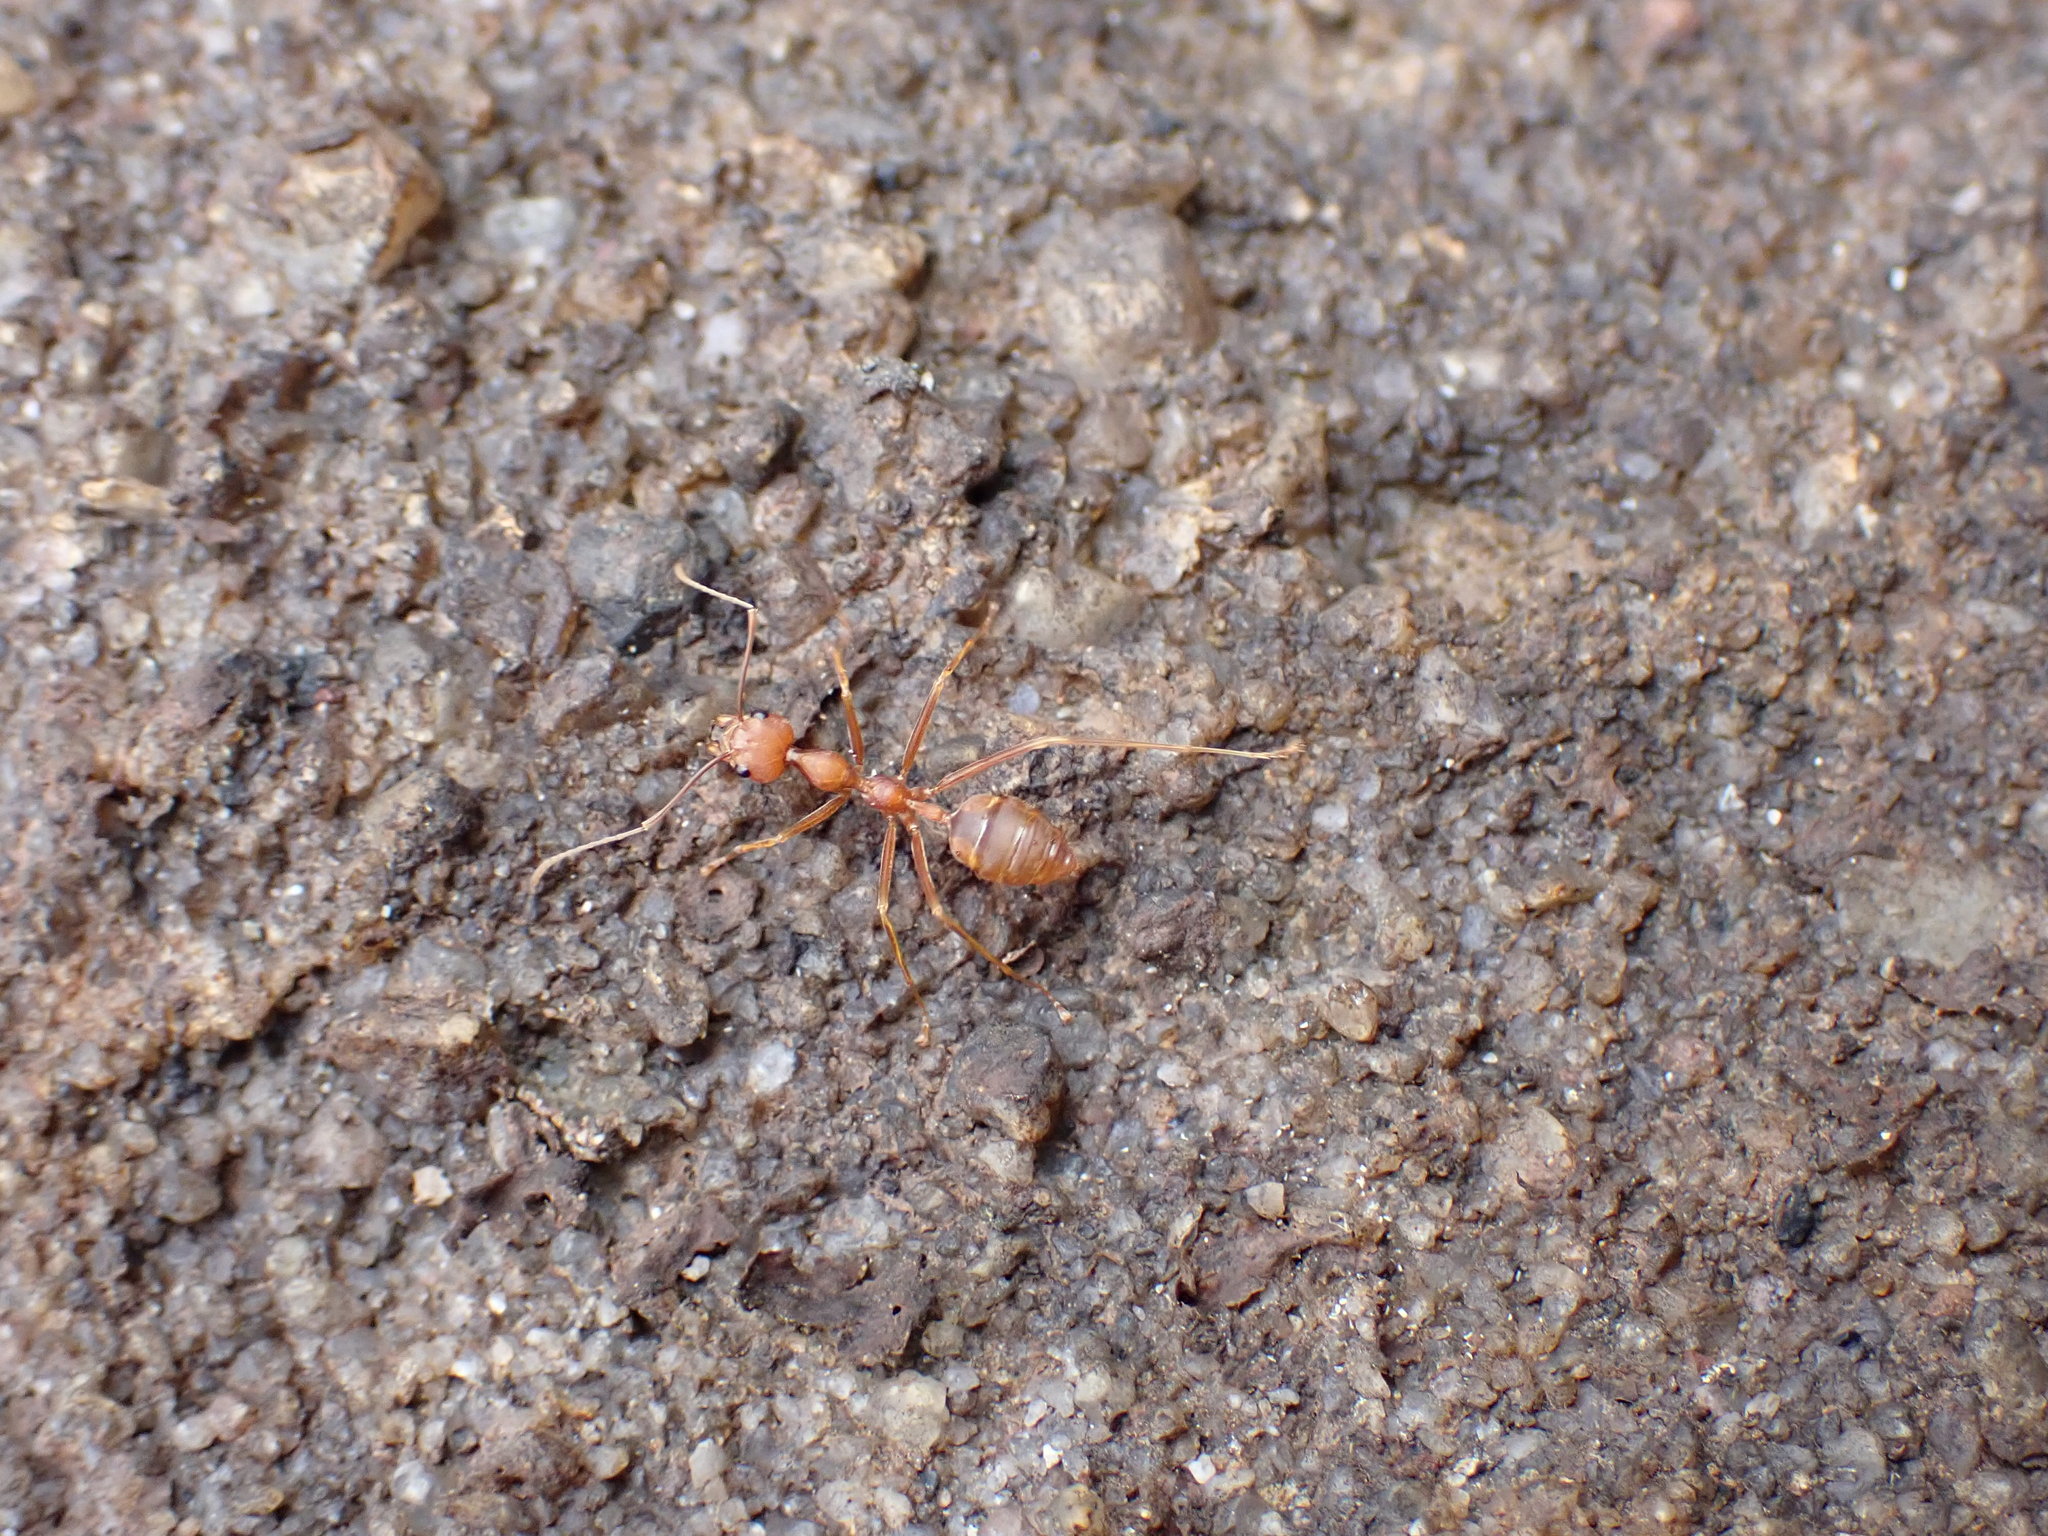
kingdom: Animalia
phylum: Arthropoda
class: Insecta
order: Hymenoptera
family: Formicidae
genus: Oecophylla
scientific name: Oecophylla smaragdina
